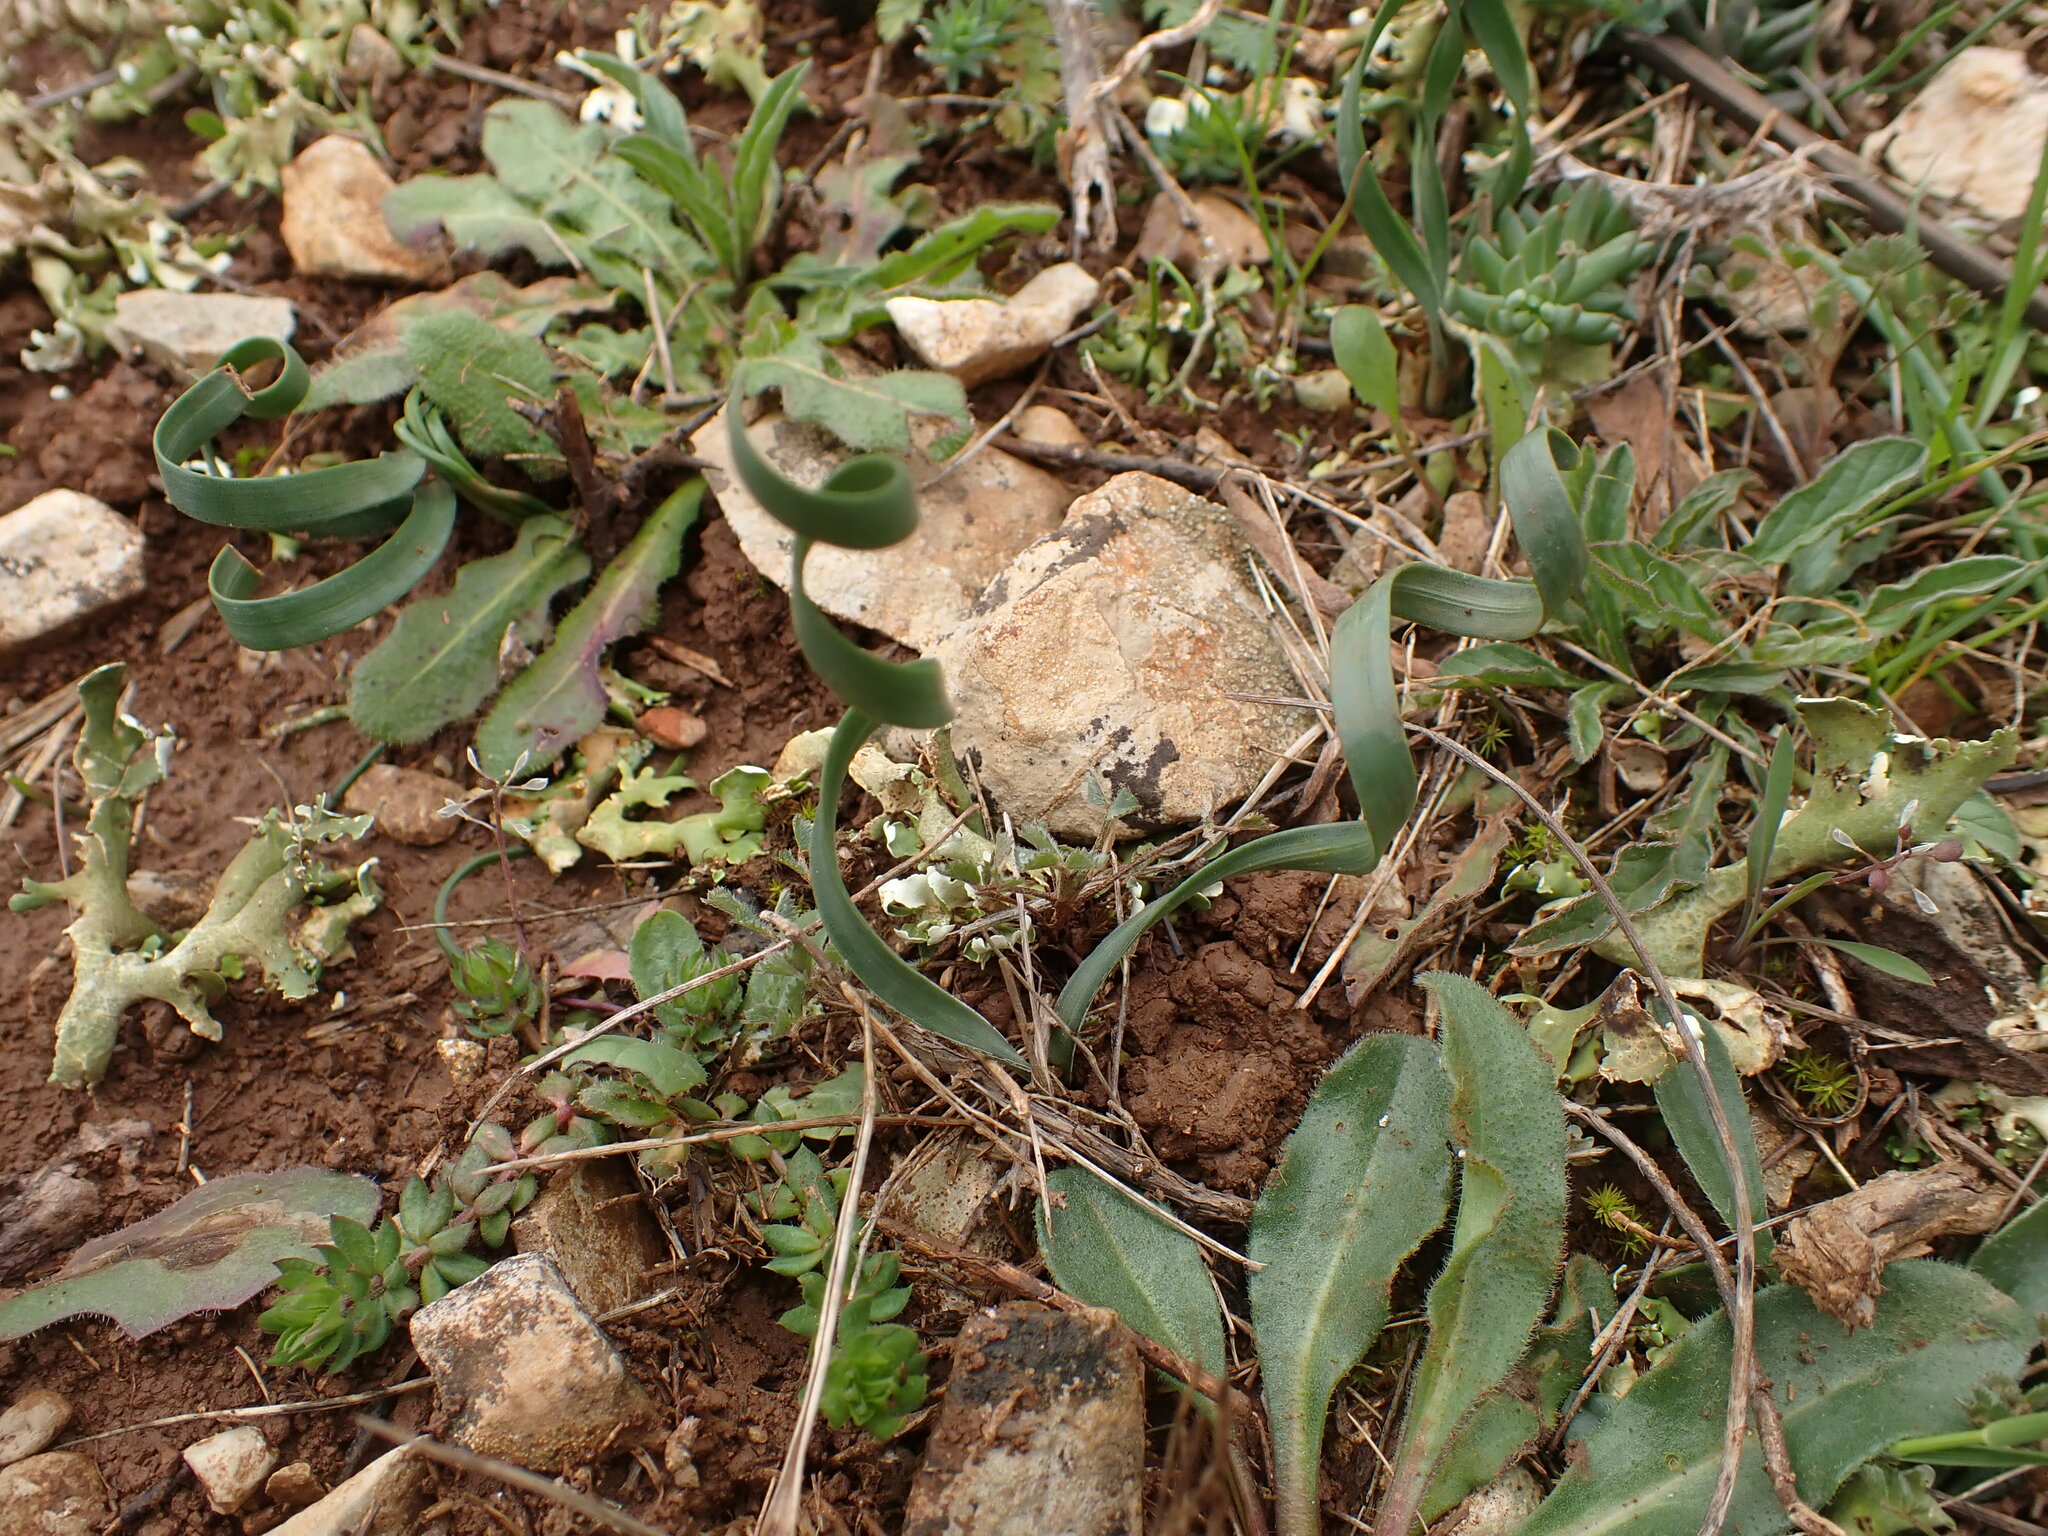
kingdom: Plantae
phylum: Tracheophyta
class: Liliopsida
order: Asparagales
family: Amaryllidaceae
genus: Sternbergia
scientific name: Sternbergia colchiciflora
